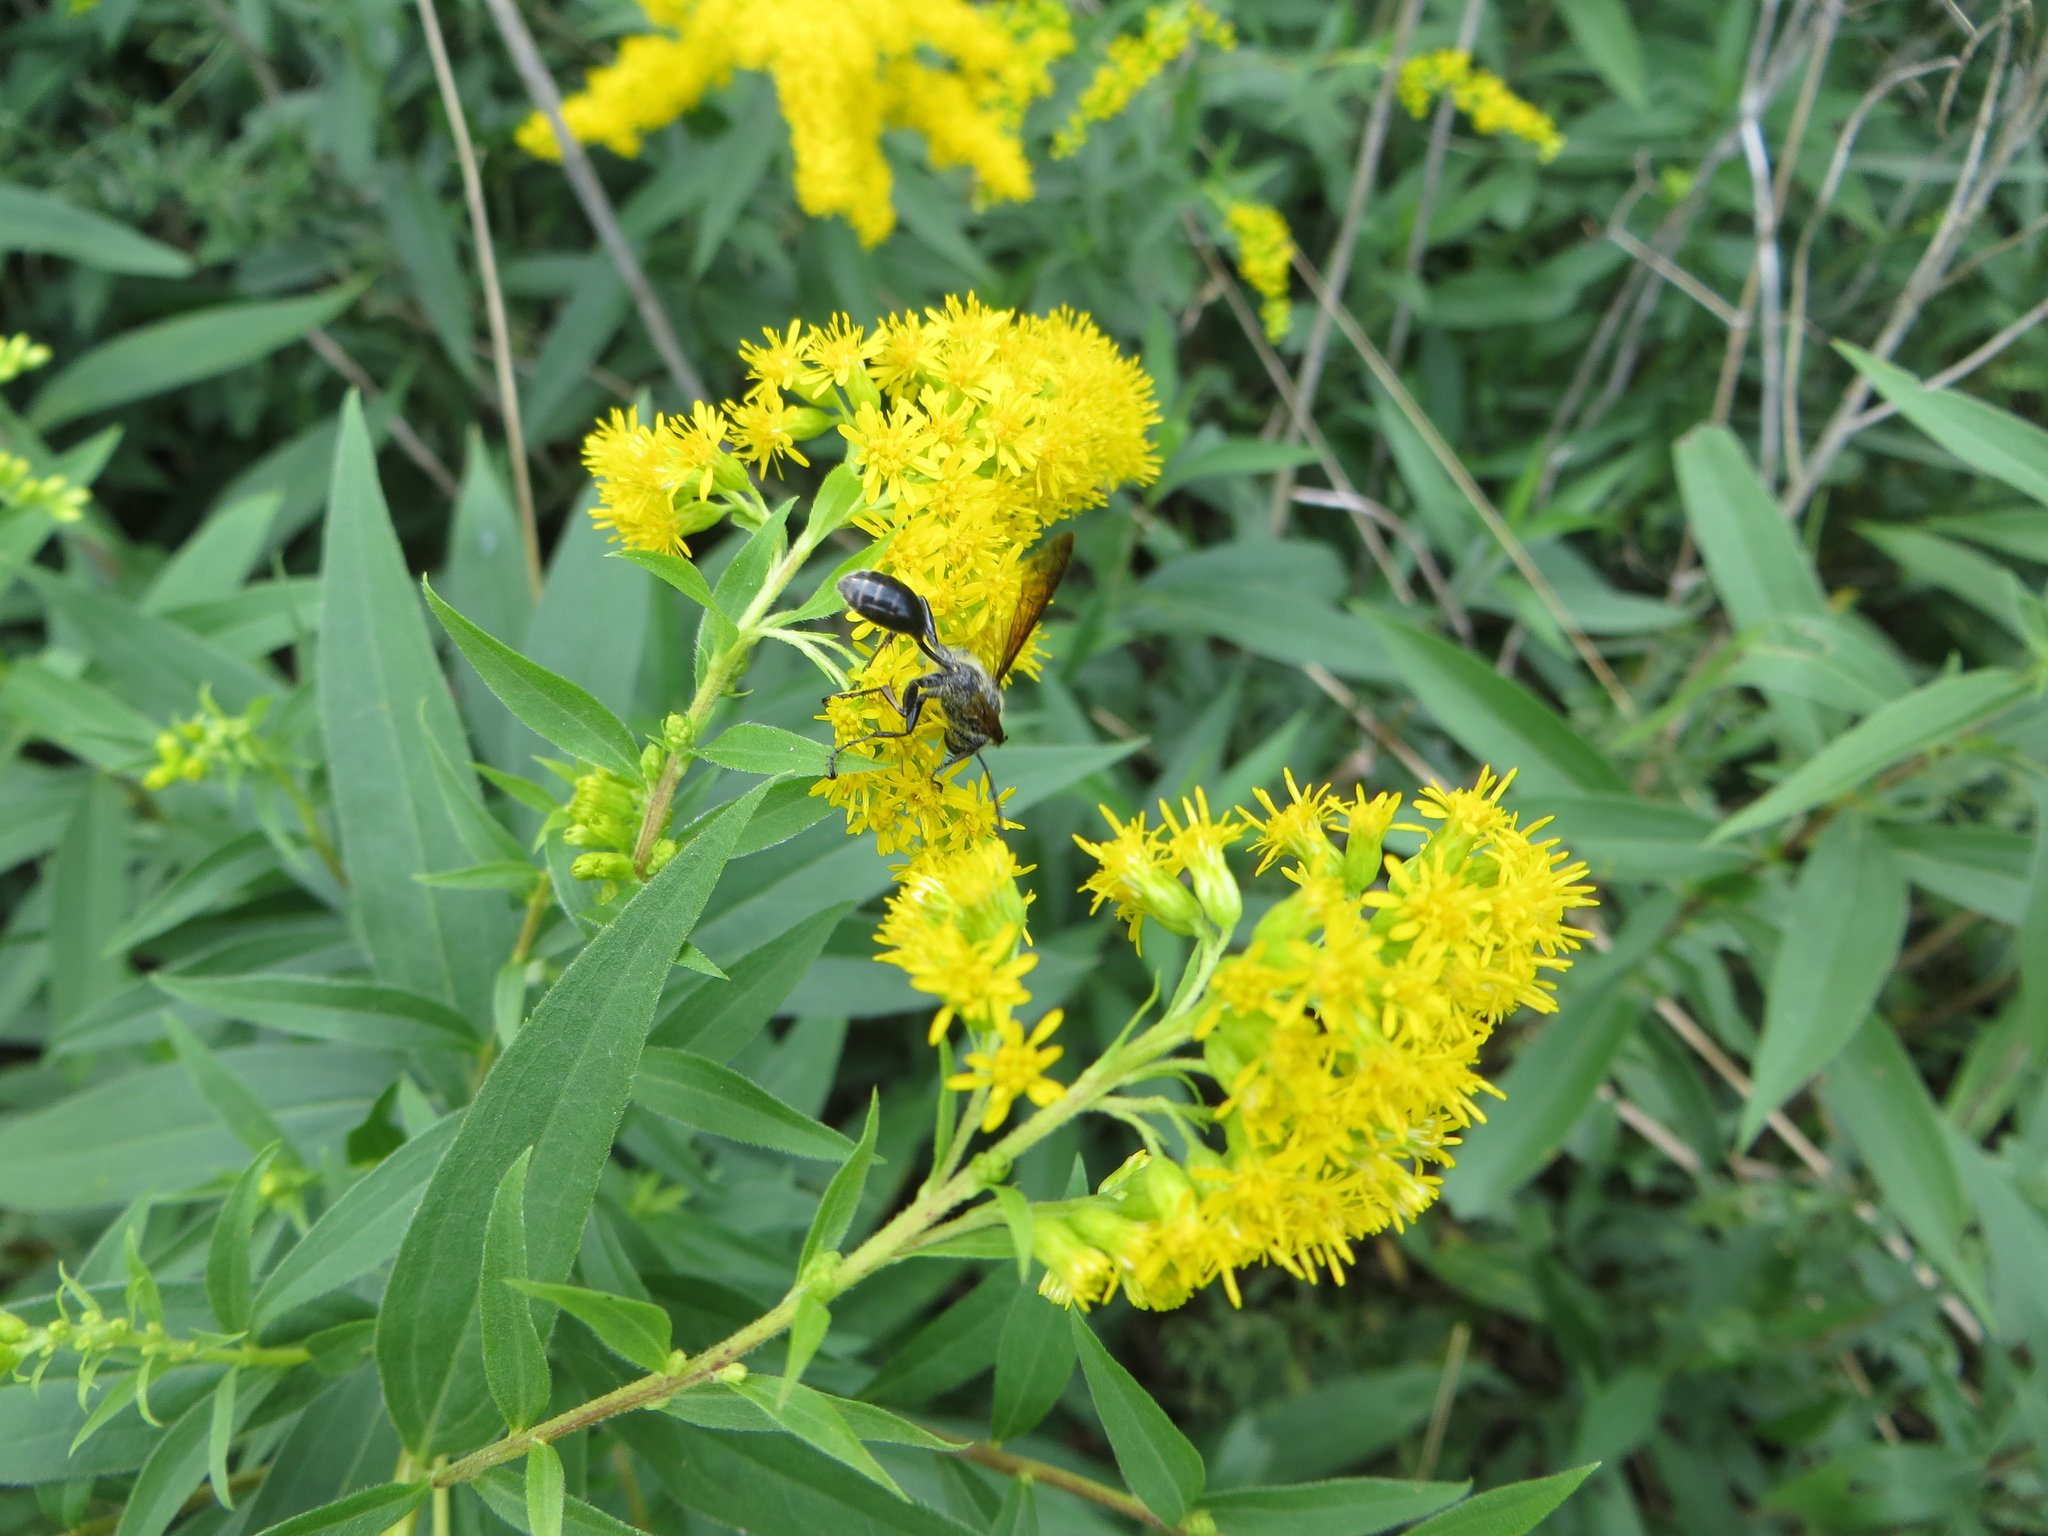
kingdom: Animalia
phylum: Arthropoda
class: Insecta
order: Hymenoptera
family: Sphecidae
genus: Isodontia
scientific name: Isodontia mexicana
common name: Mud dauber
